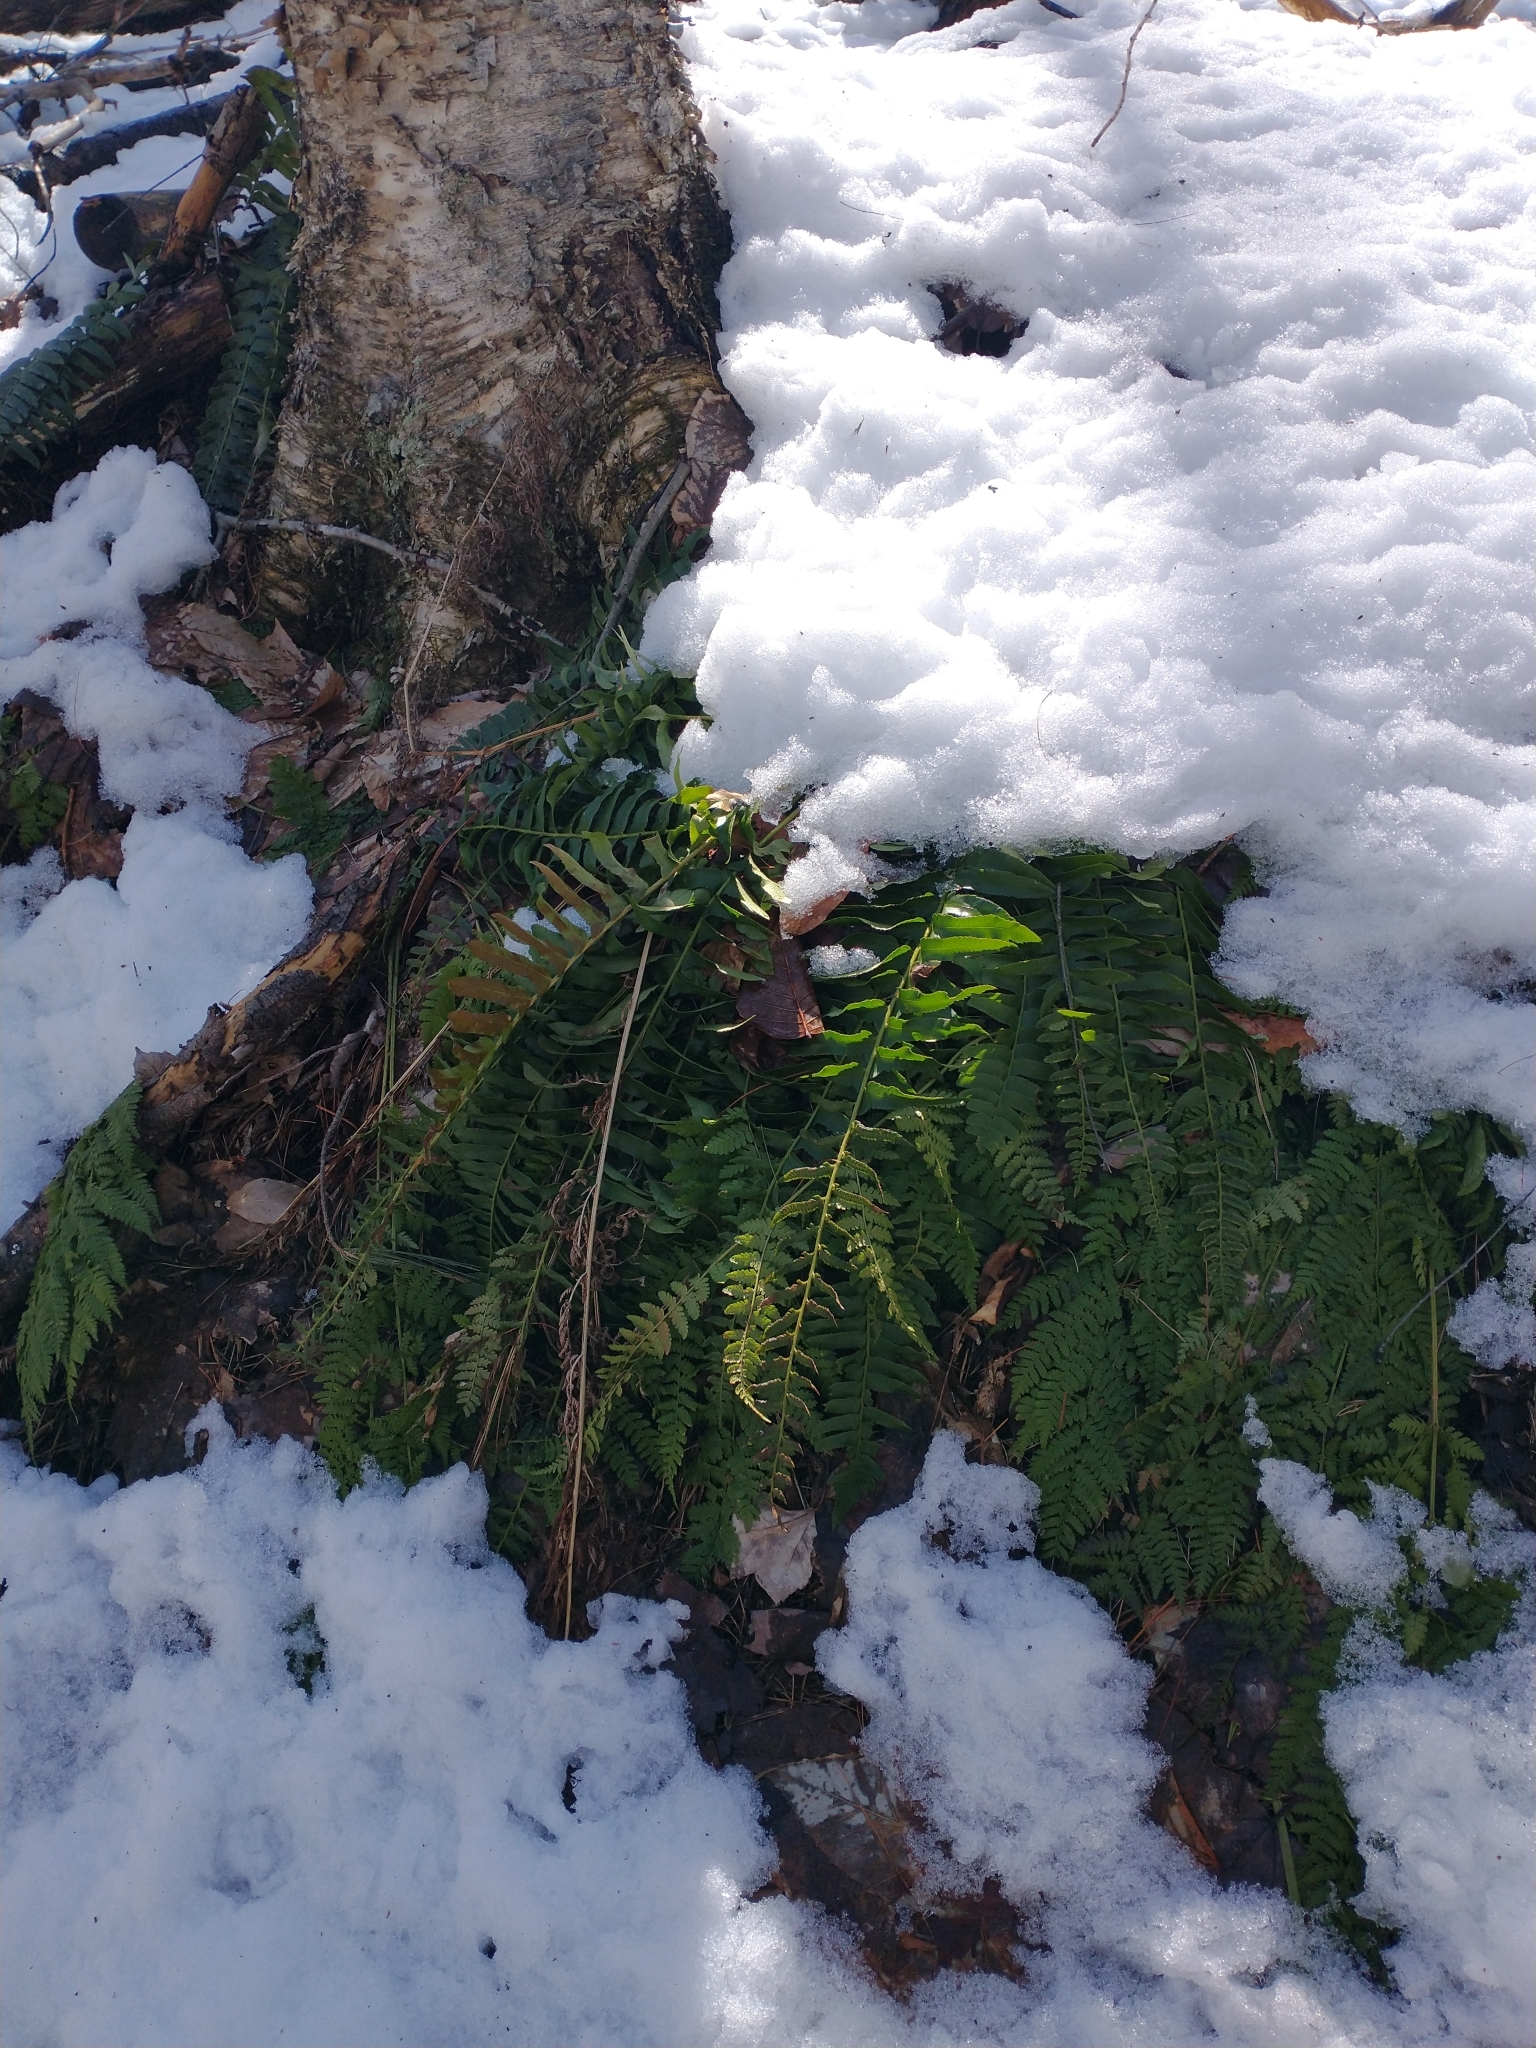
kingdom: Plantae
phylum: Tracheophyta
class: Polypodiopsida
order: Polypodiales
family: Dryopteridaceae
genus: Polystichum
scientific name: Polystichum acrostichoides
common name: Christmas fern
